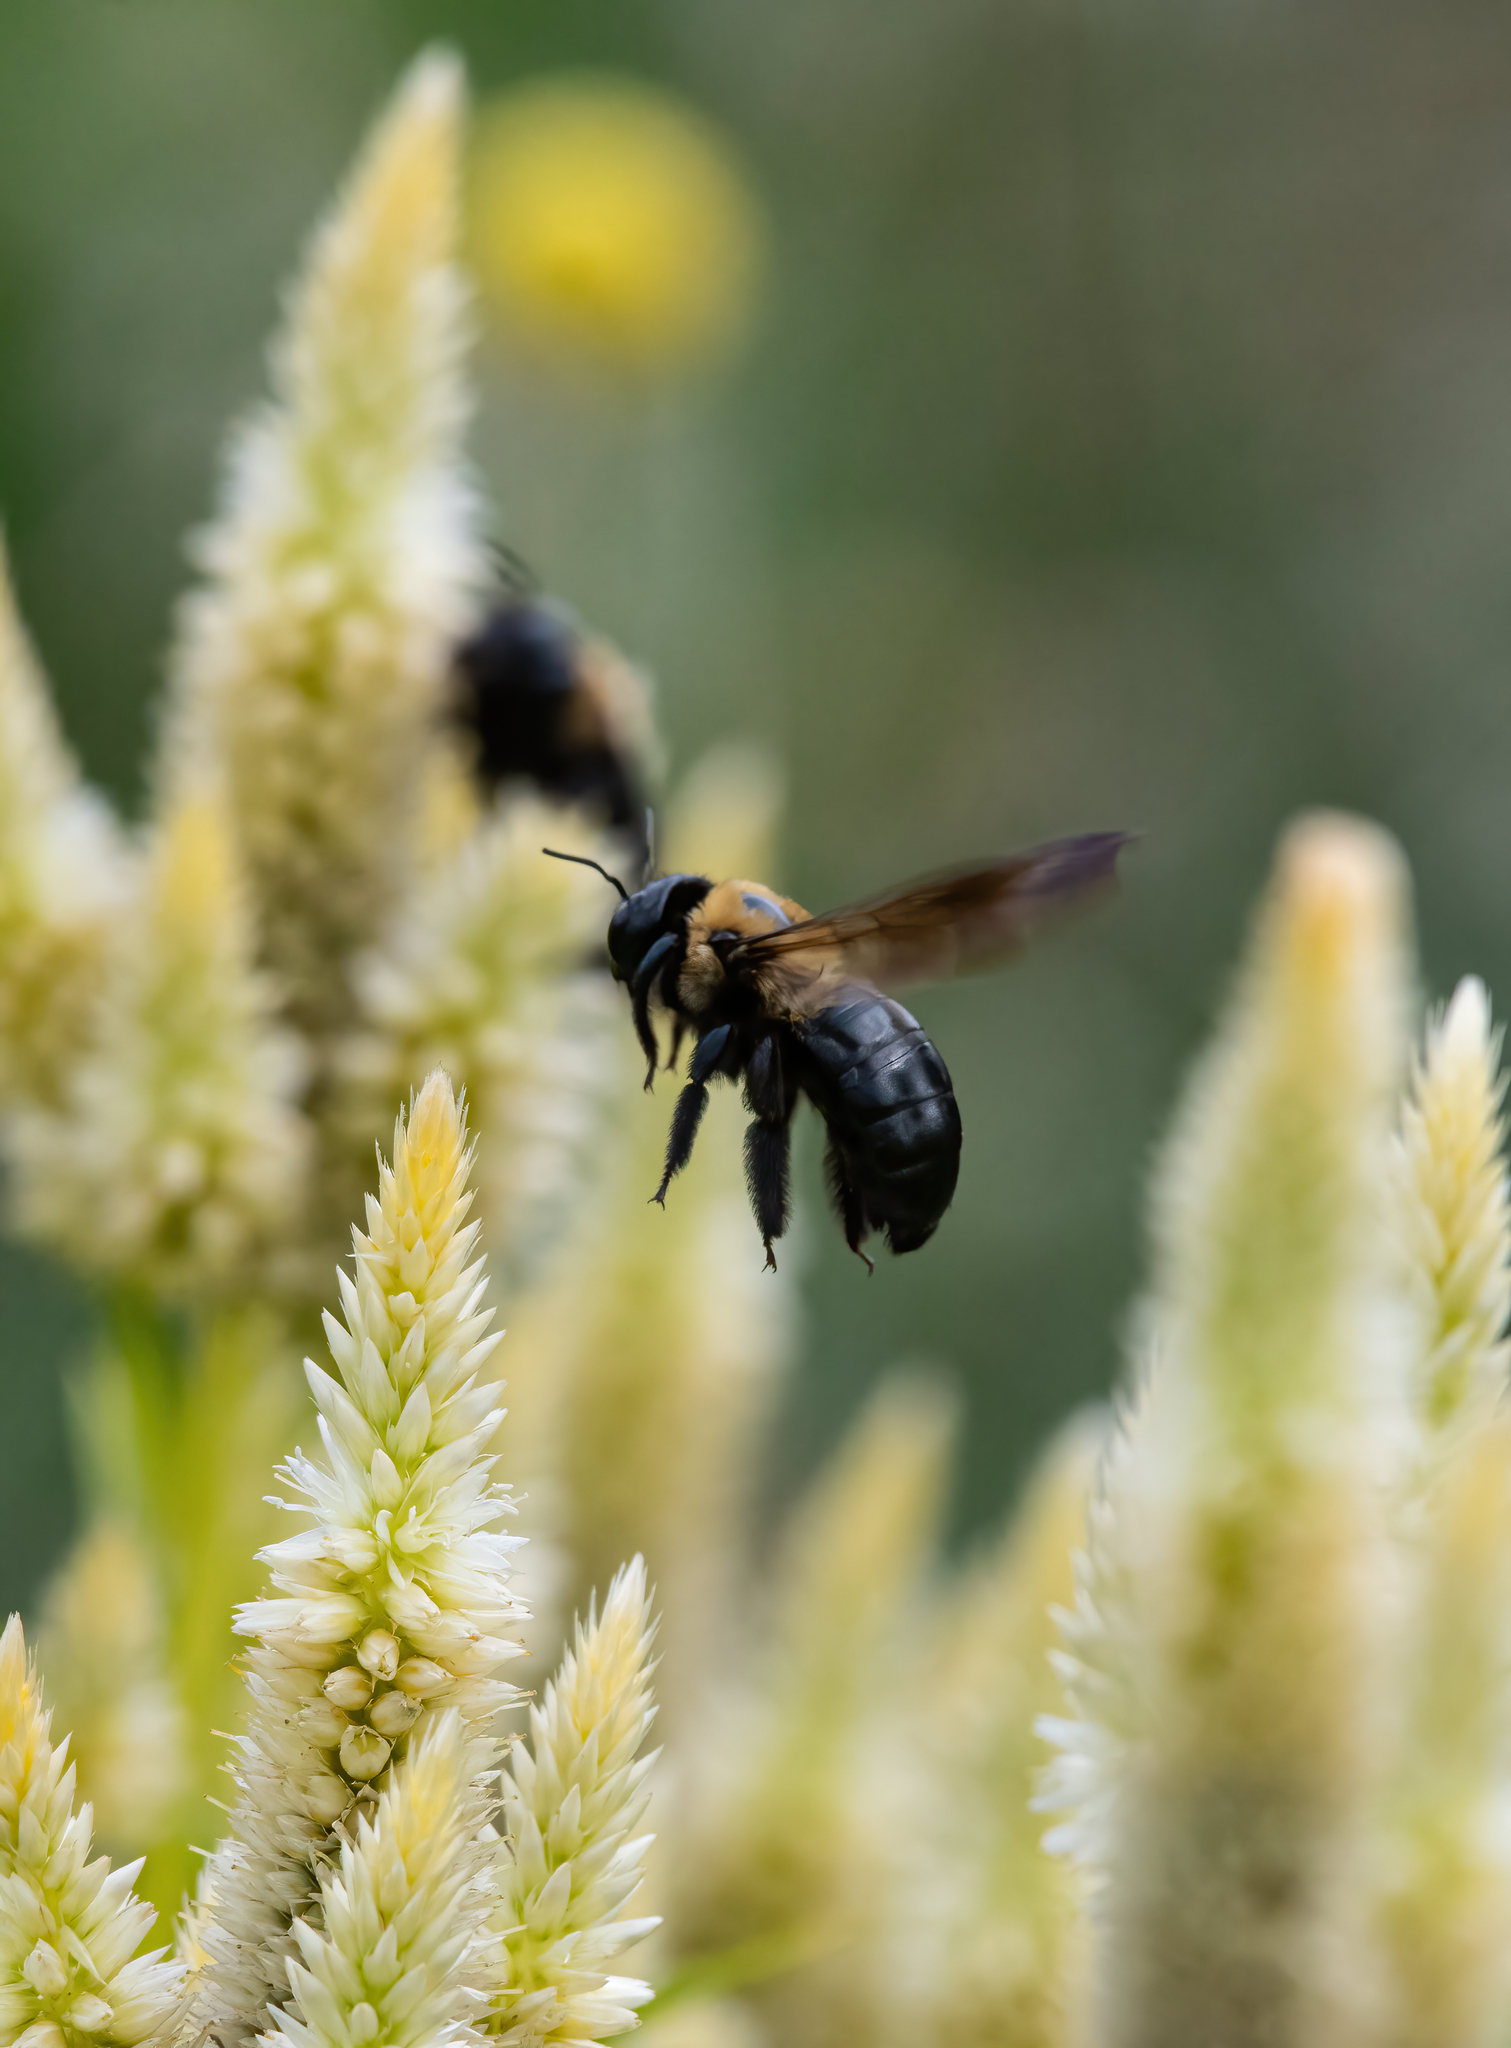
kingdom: Animalia
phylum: Arthropoda
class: Insecta
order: Hymenoptera
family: Apidae
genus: Xylocopa
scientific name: Xylocopa virginica
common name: Carpenter bee
